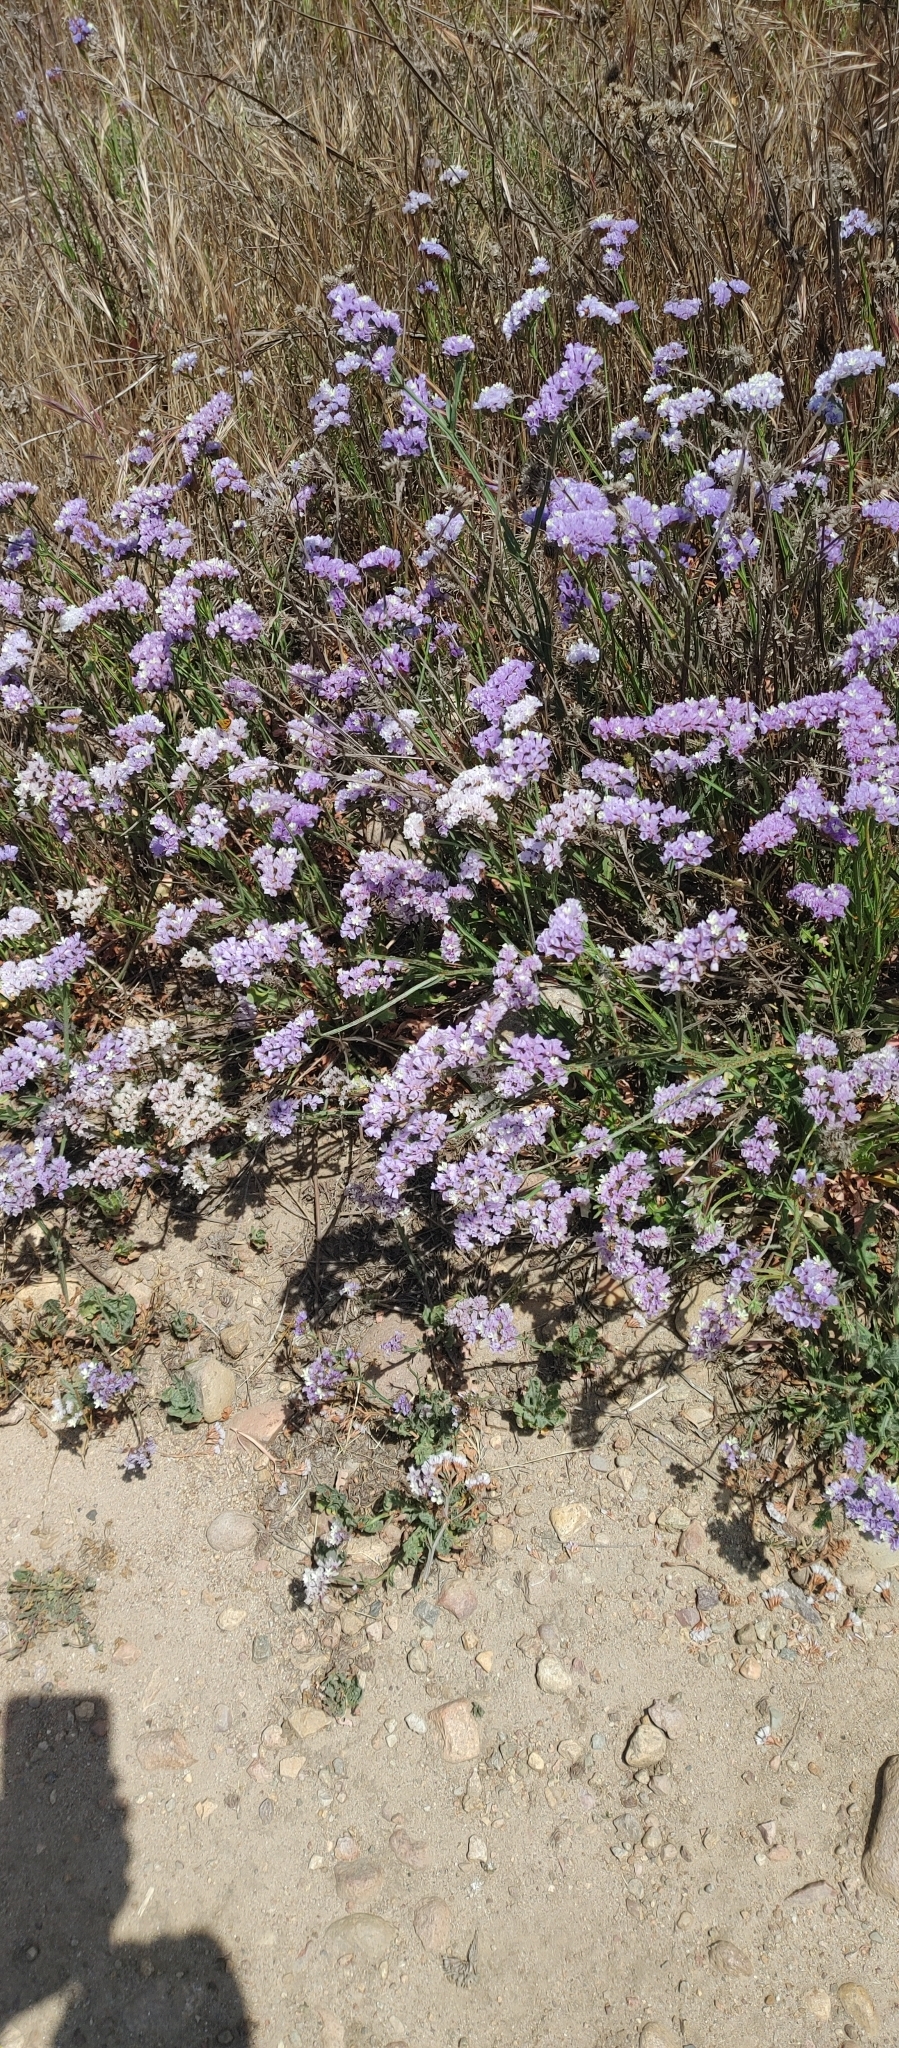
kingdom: Plantae
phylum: Tracheophyta
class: Magnoliopsida
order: Caryophyllales
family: Plumbaginaceae
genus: Limonium
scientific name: Limonium sinuatum
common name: Statice
